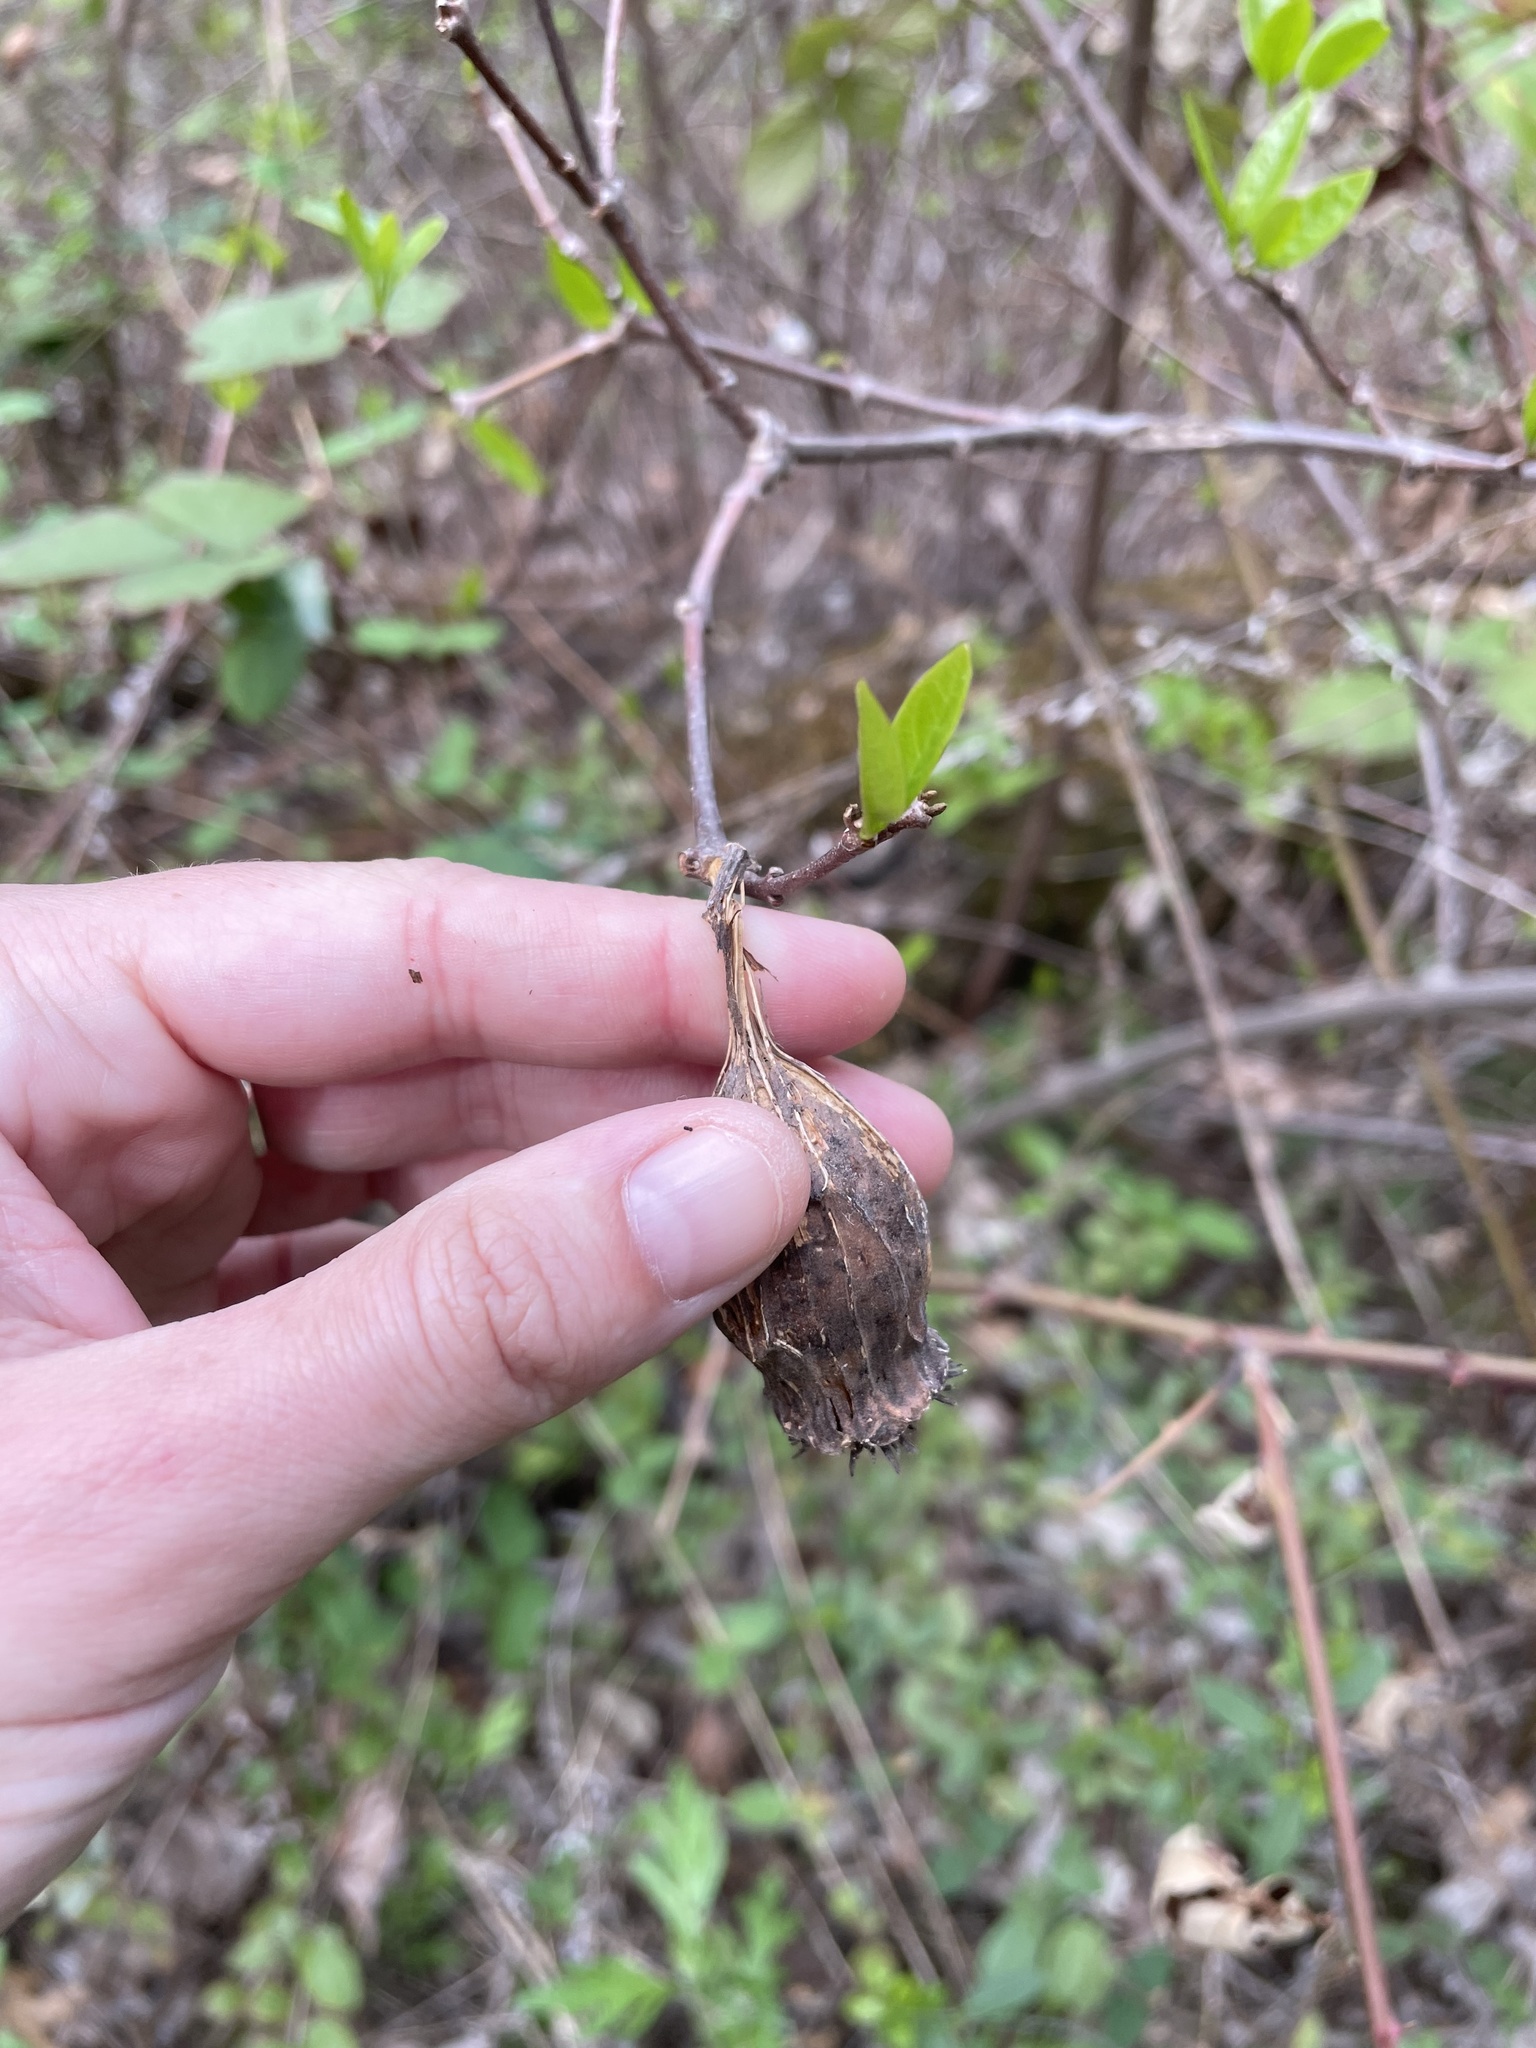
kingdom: Plantae
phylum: Tracheophyta
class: Magnoliopsida
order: Laurales
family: Calycanthaceae
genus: Calycanthus
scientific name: Calycanthus occidentalis
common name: California spicebush
